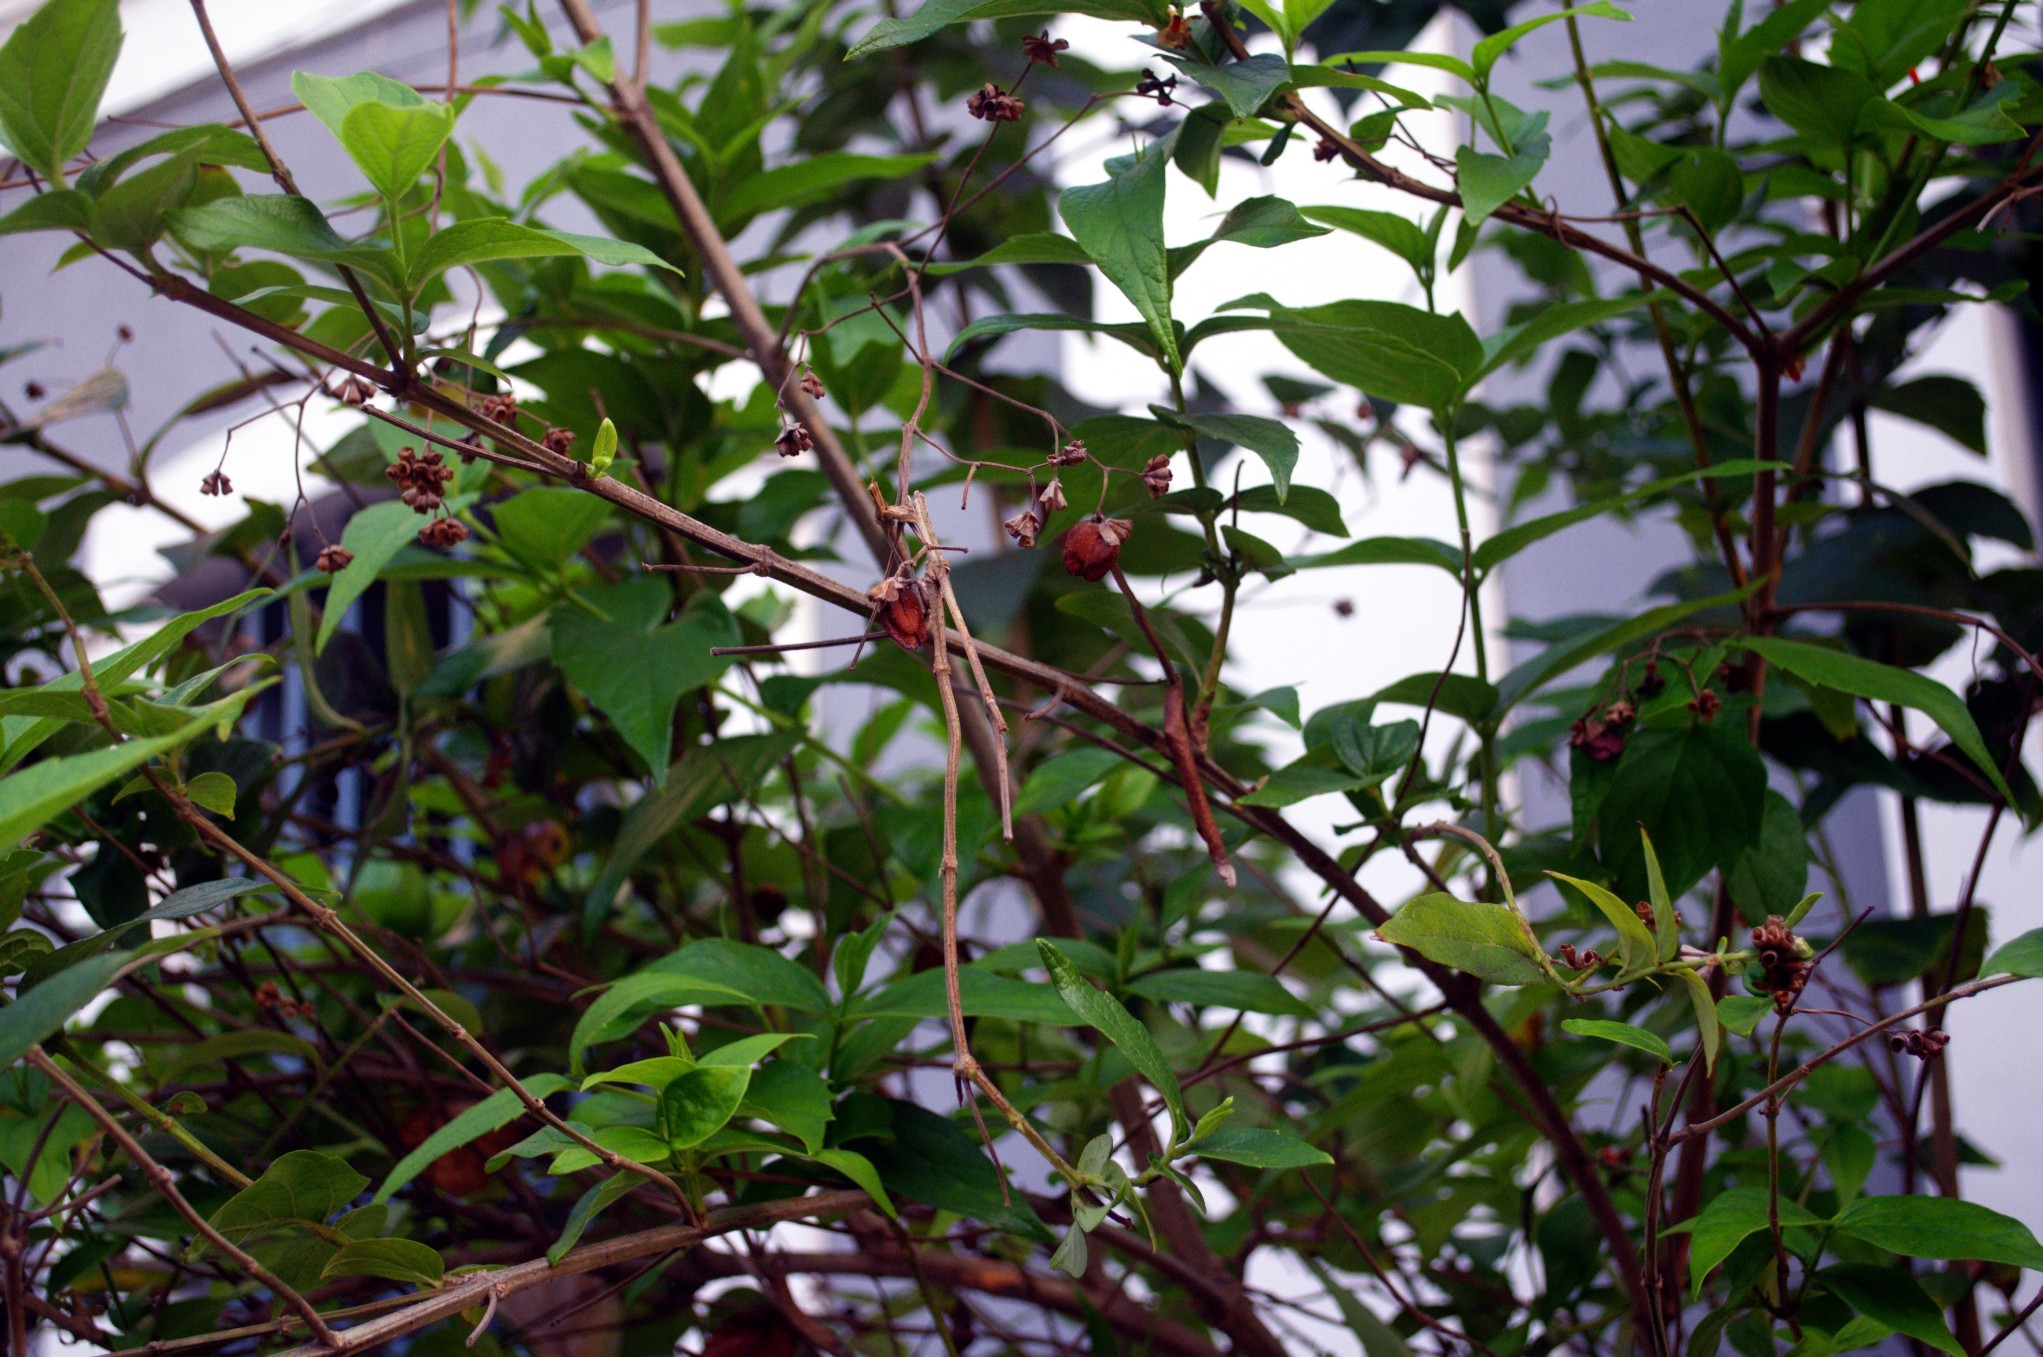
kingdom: Plantae
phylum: Tracheophyta
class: Magnoliopsida
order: Lamiales
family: Oleaceae
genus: Nyctanthes
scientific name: Nyctanthes arbor-tristis
